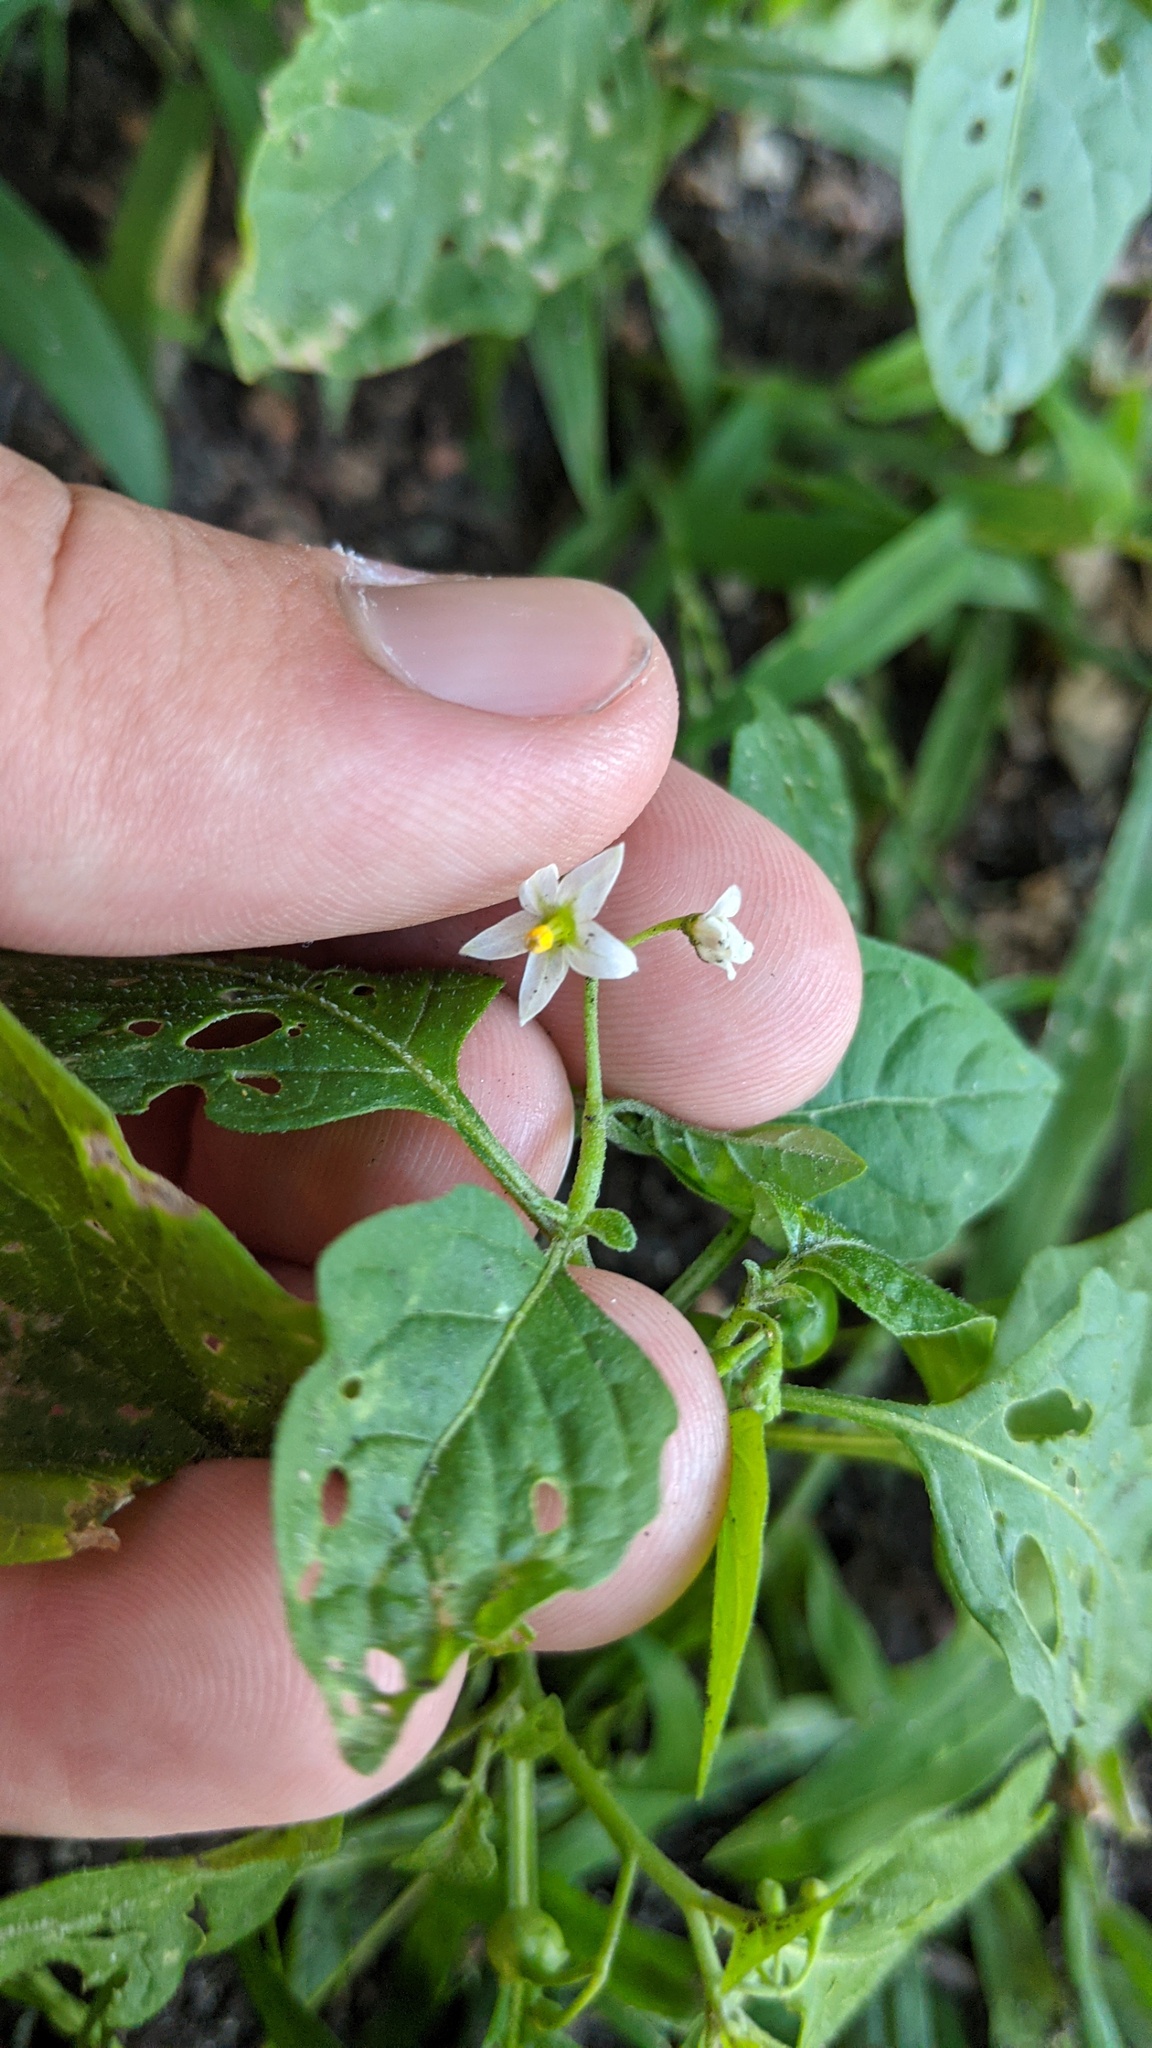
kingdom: Plantae
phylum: Tracheophyta
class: Magnoliopsida
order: Solanales
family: Solanaceae
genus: Solanum
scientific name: Solanum emulans
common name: Eastern black nightshade
